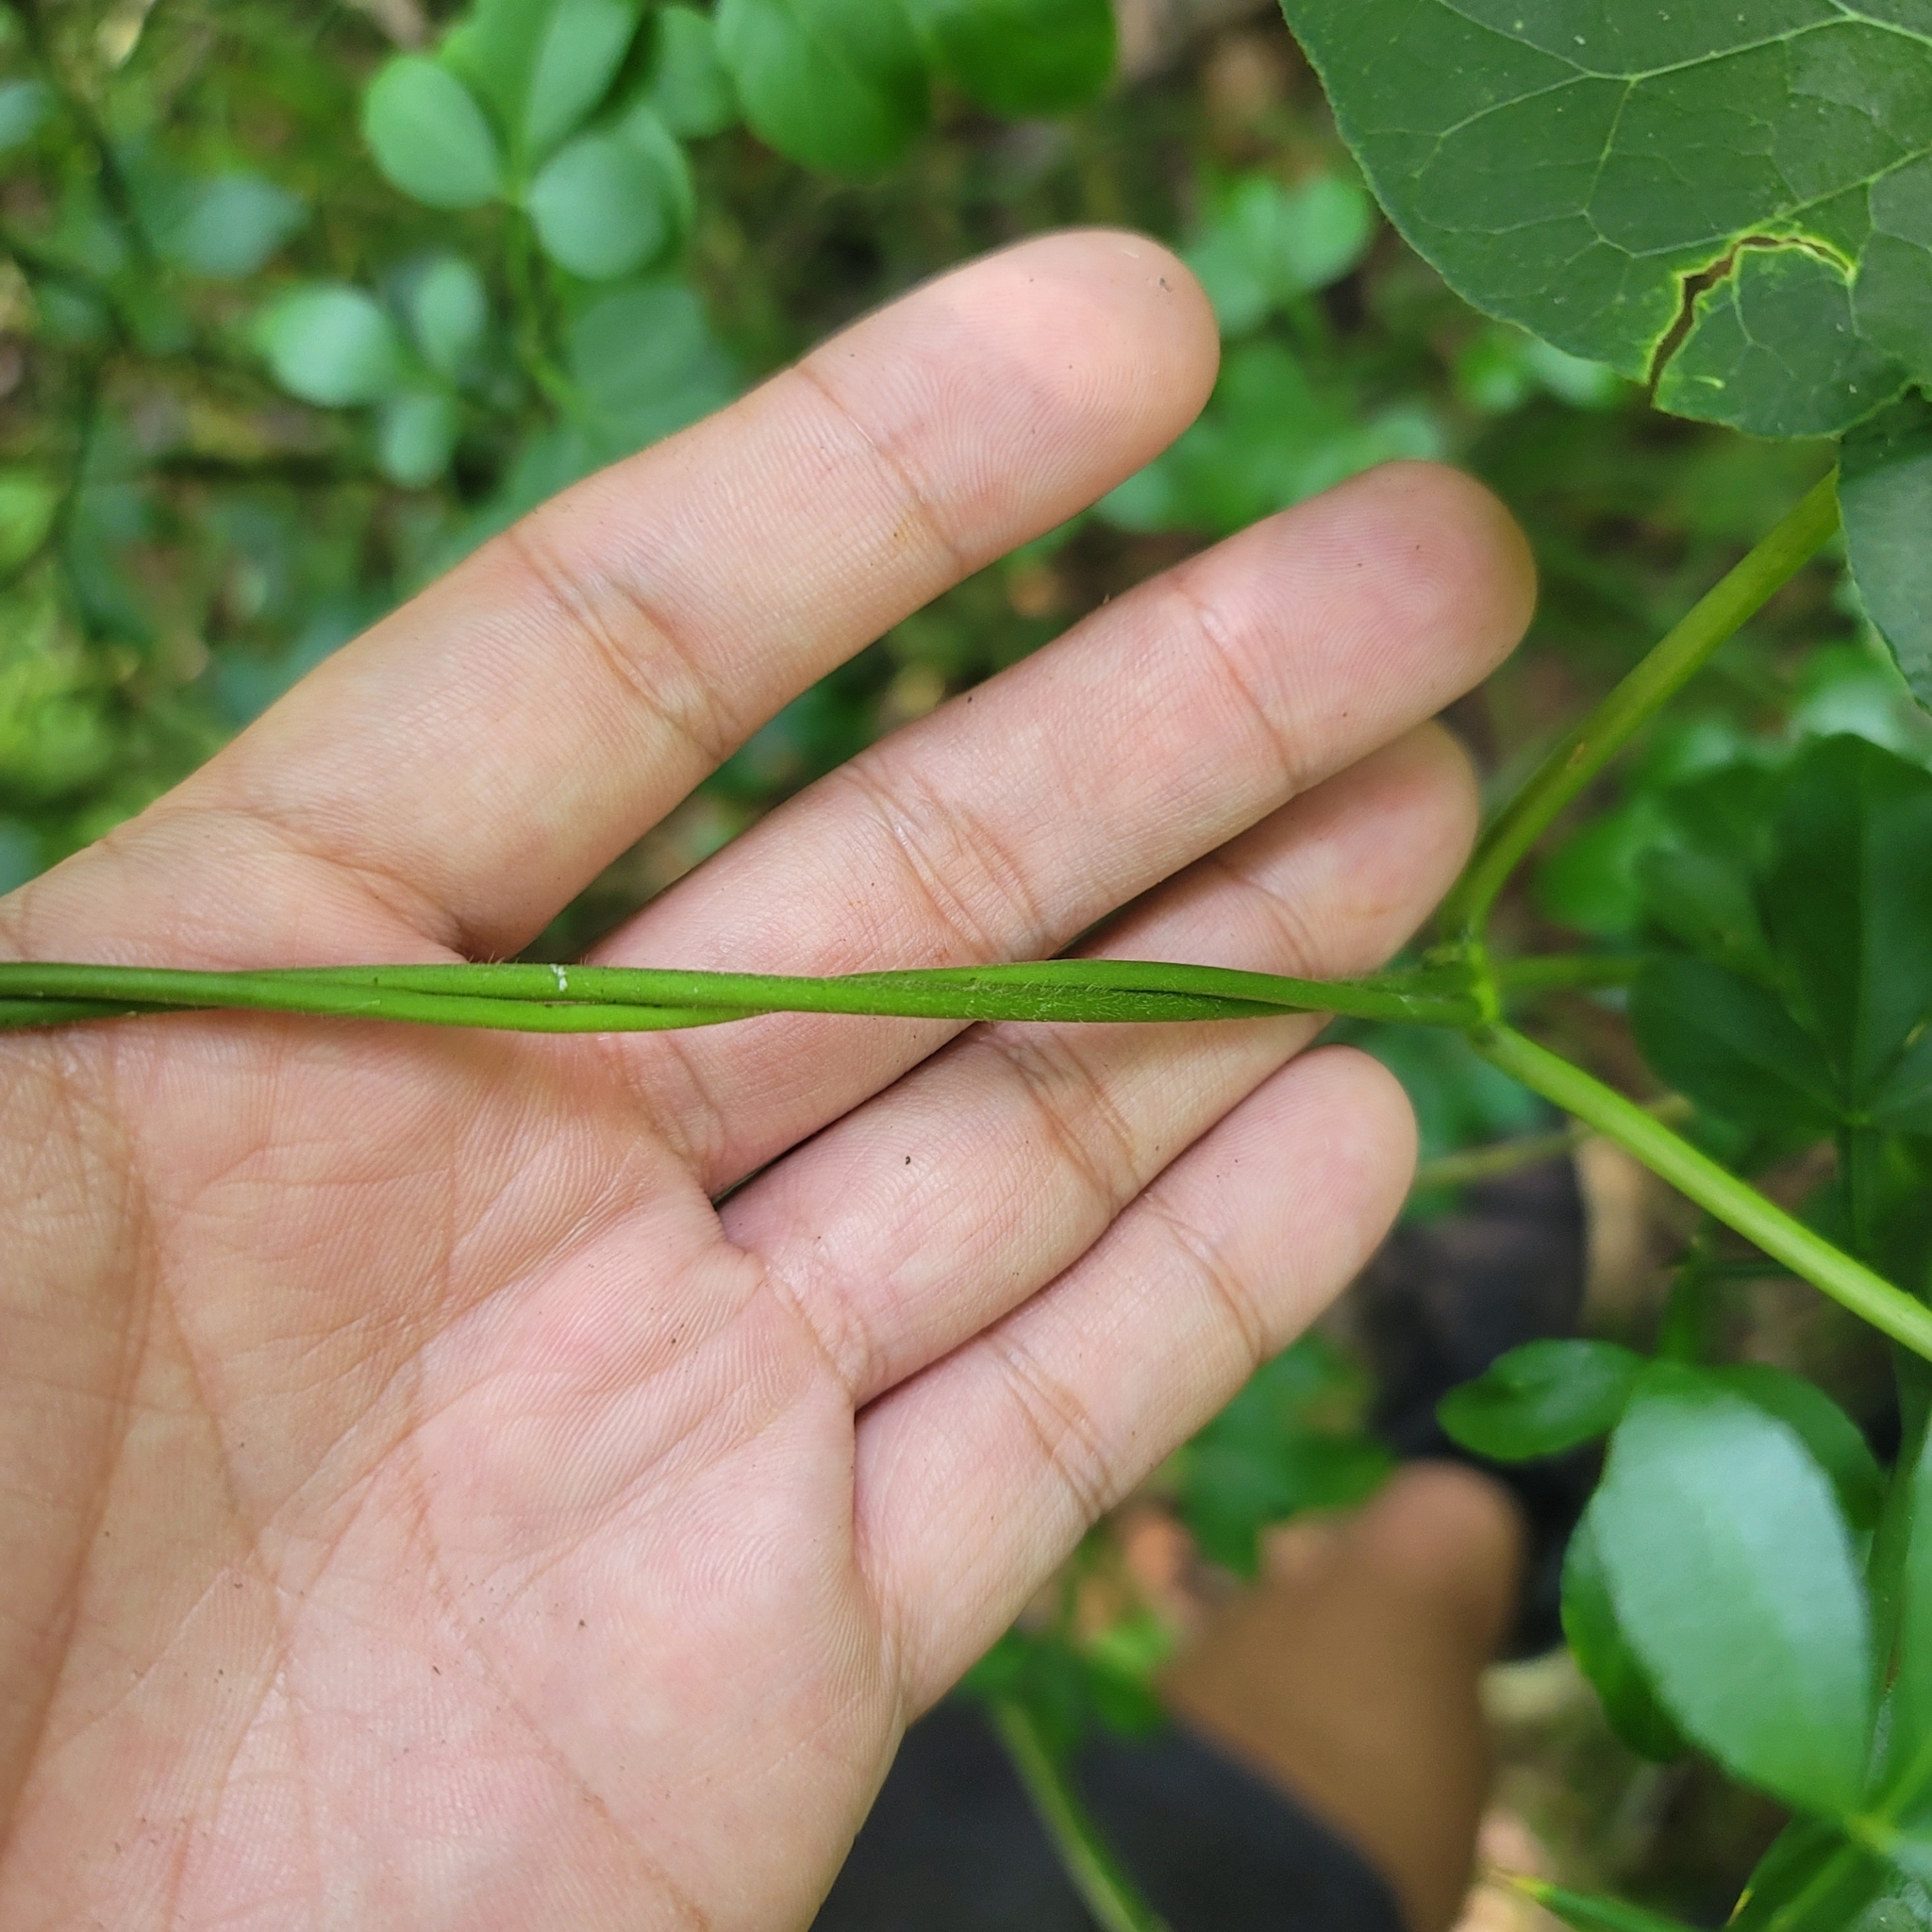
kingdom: Plantae
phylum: Tracheophyta
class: Magnoliopsida
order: Gentianales
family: Apocynaceae
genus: Gonolobus
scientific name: Gonolobus suberosus
